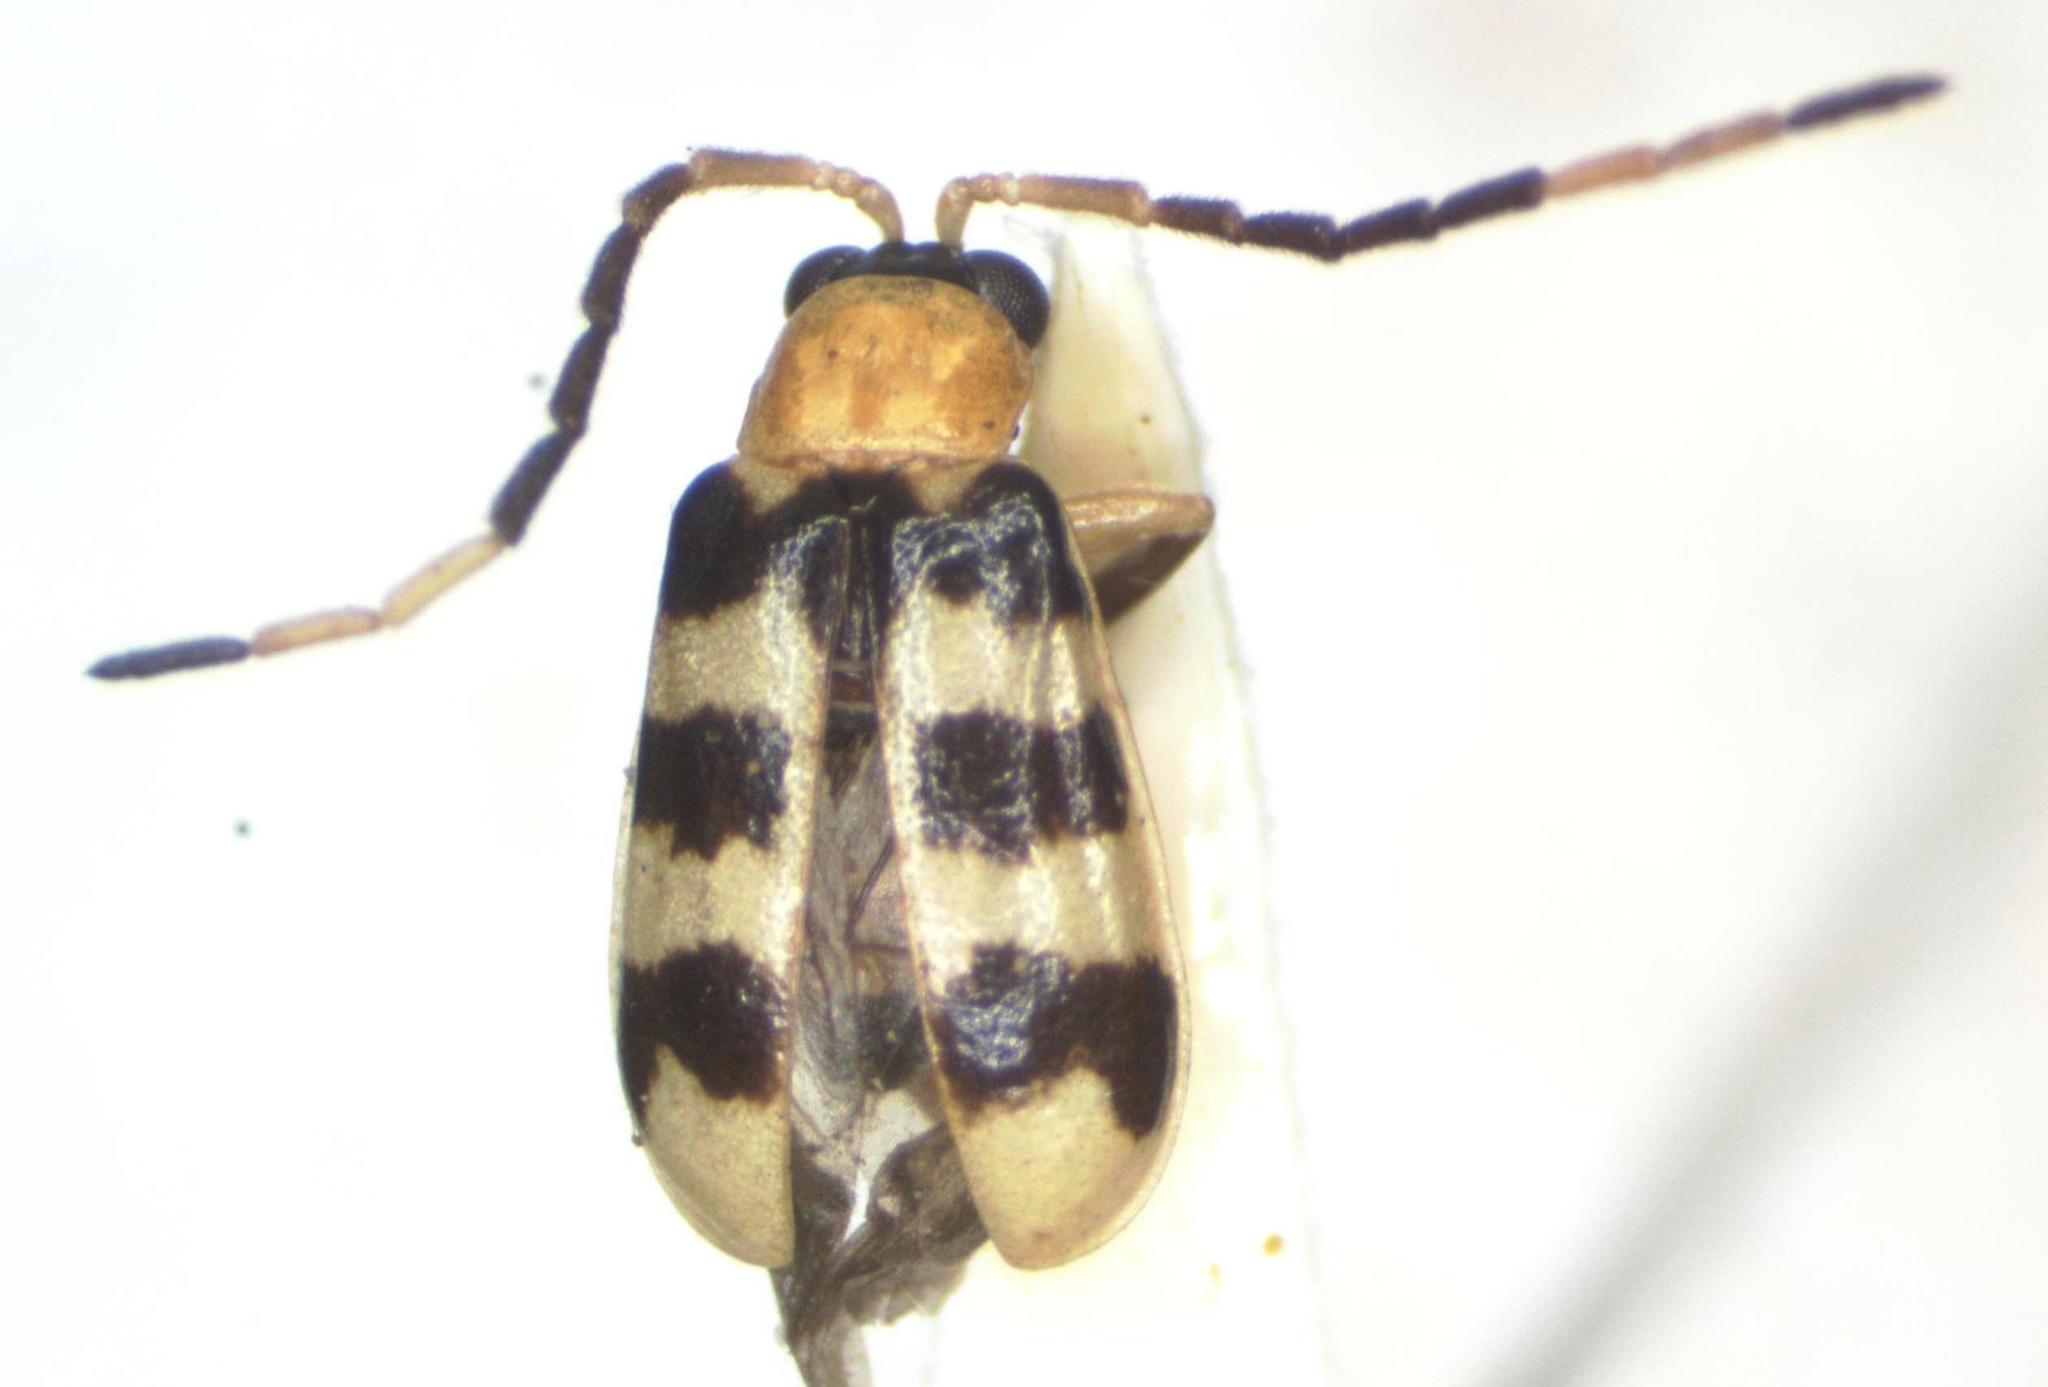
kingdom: Animalia
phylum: Arthropoda
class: Insecta
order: Coleoptera
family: Chrysomelidae
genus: Diabrotica
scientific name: Diabrotica
